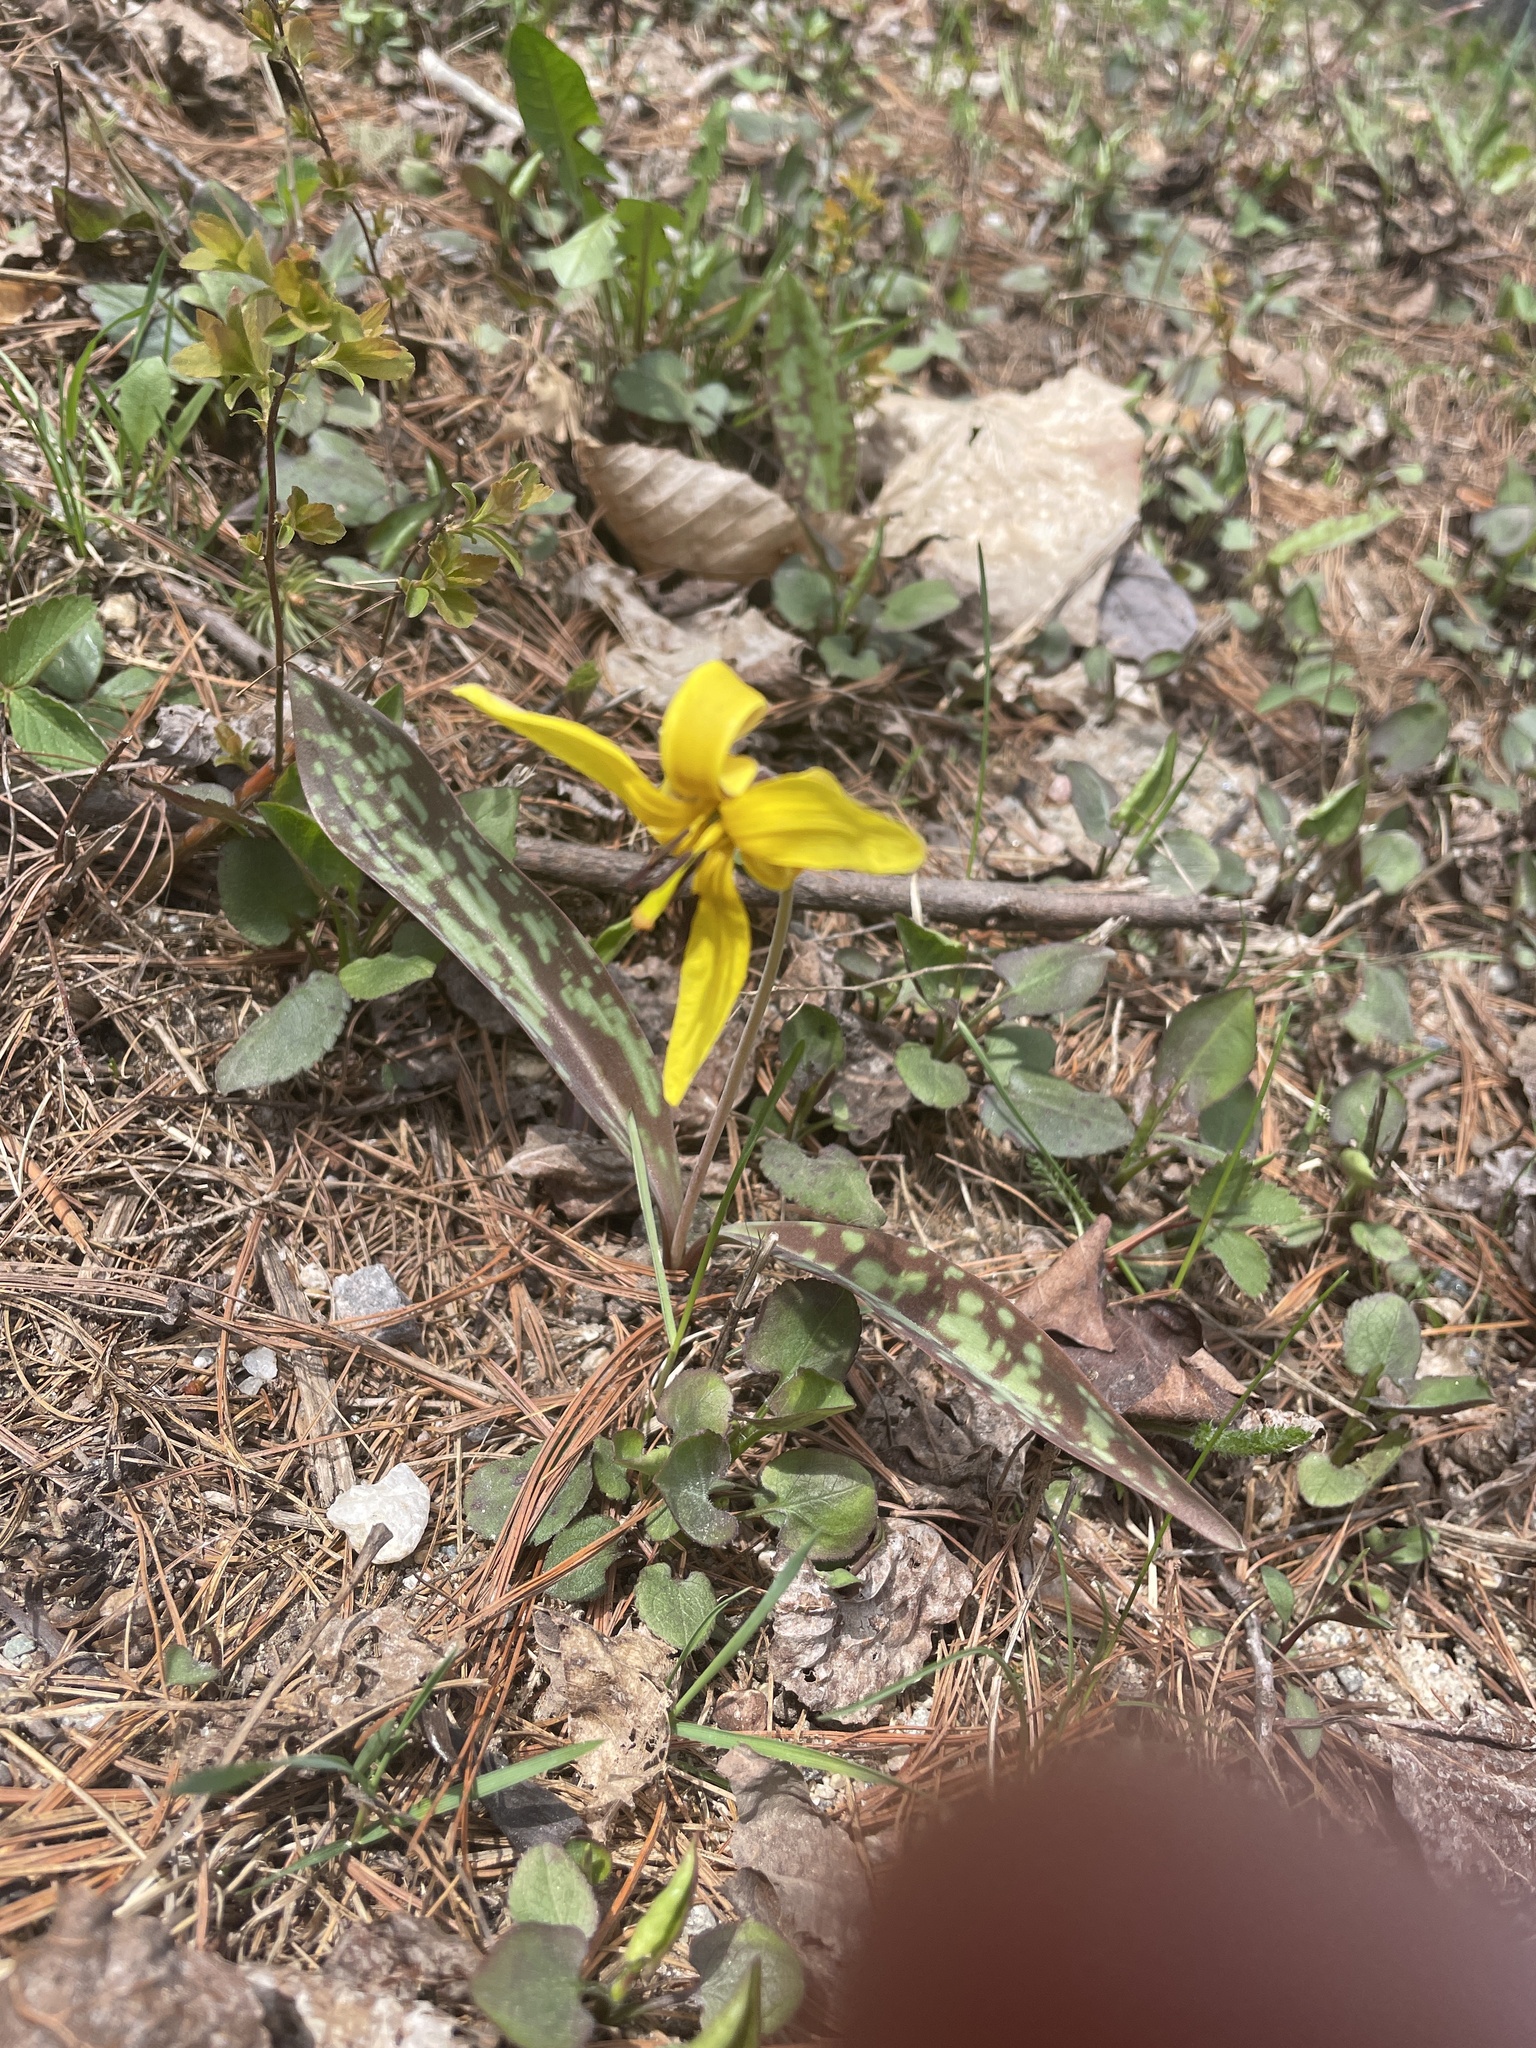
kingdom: Plantae
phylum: Tracheophyta
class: Liliopsida
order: Liliales
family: Liliaceae
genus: Erythronium
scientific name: Erythronium americanum
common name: Yellow adder's-tongue
